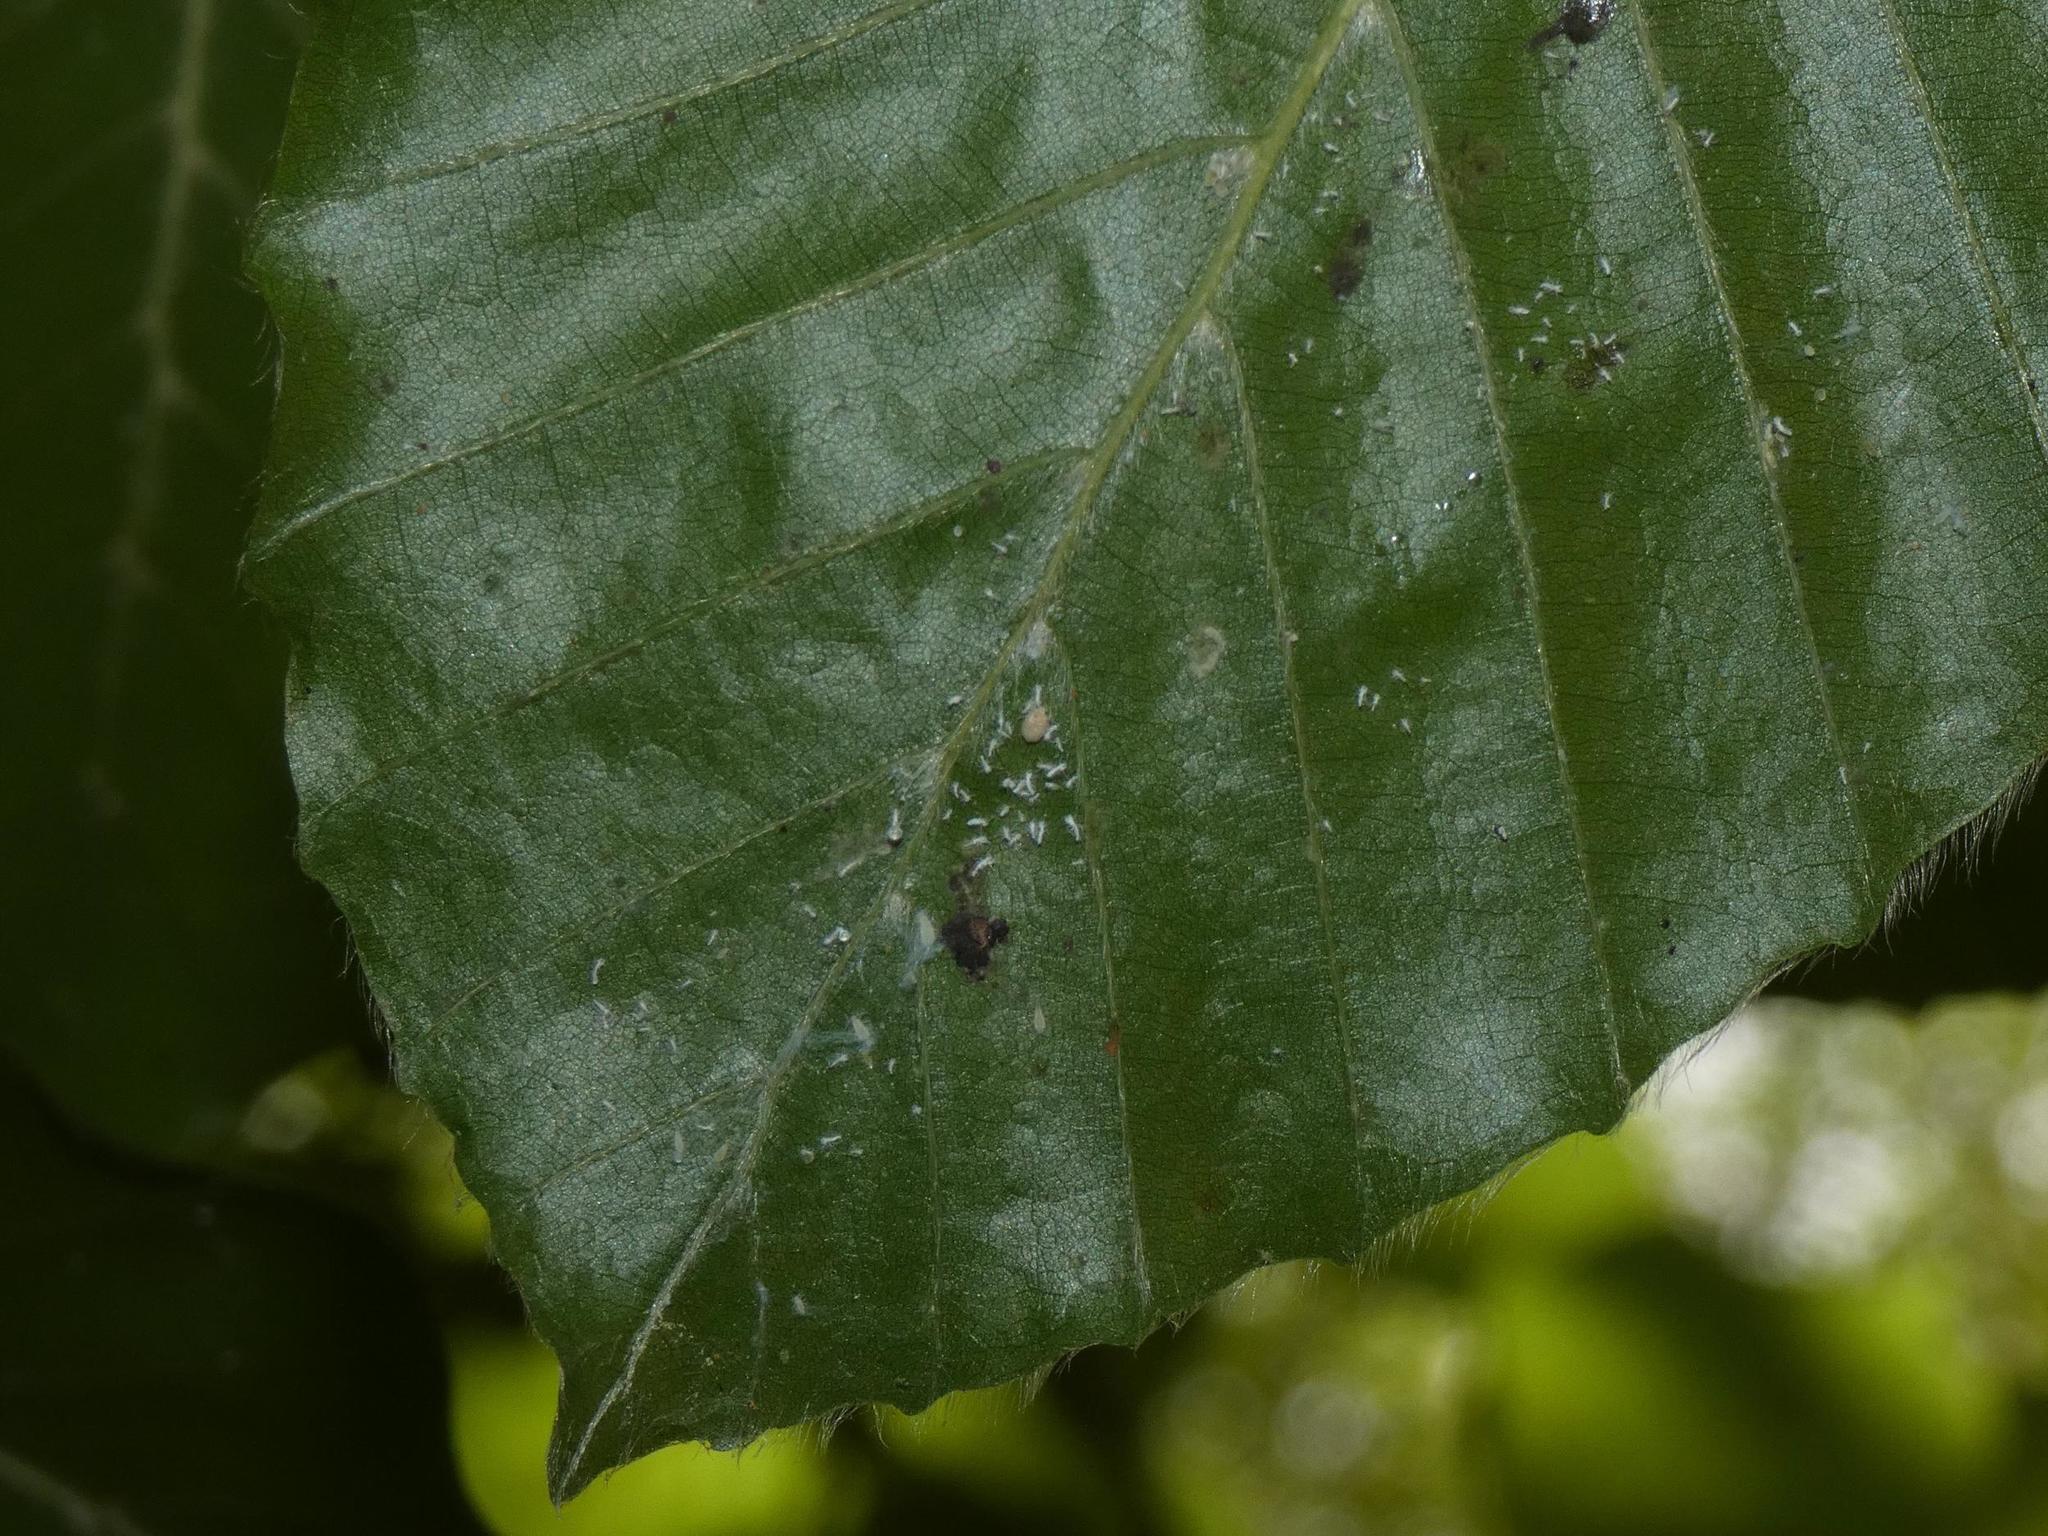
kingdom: Animalia
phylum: Arthropoda
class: Insecta
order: Hemiptera
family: Aphididae
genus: Phyllaphis
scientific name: Phyllaphis fagi
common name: Beech aphid
